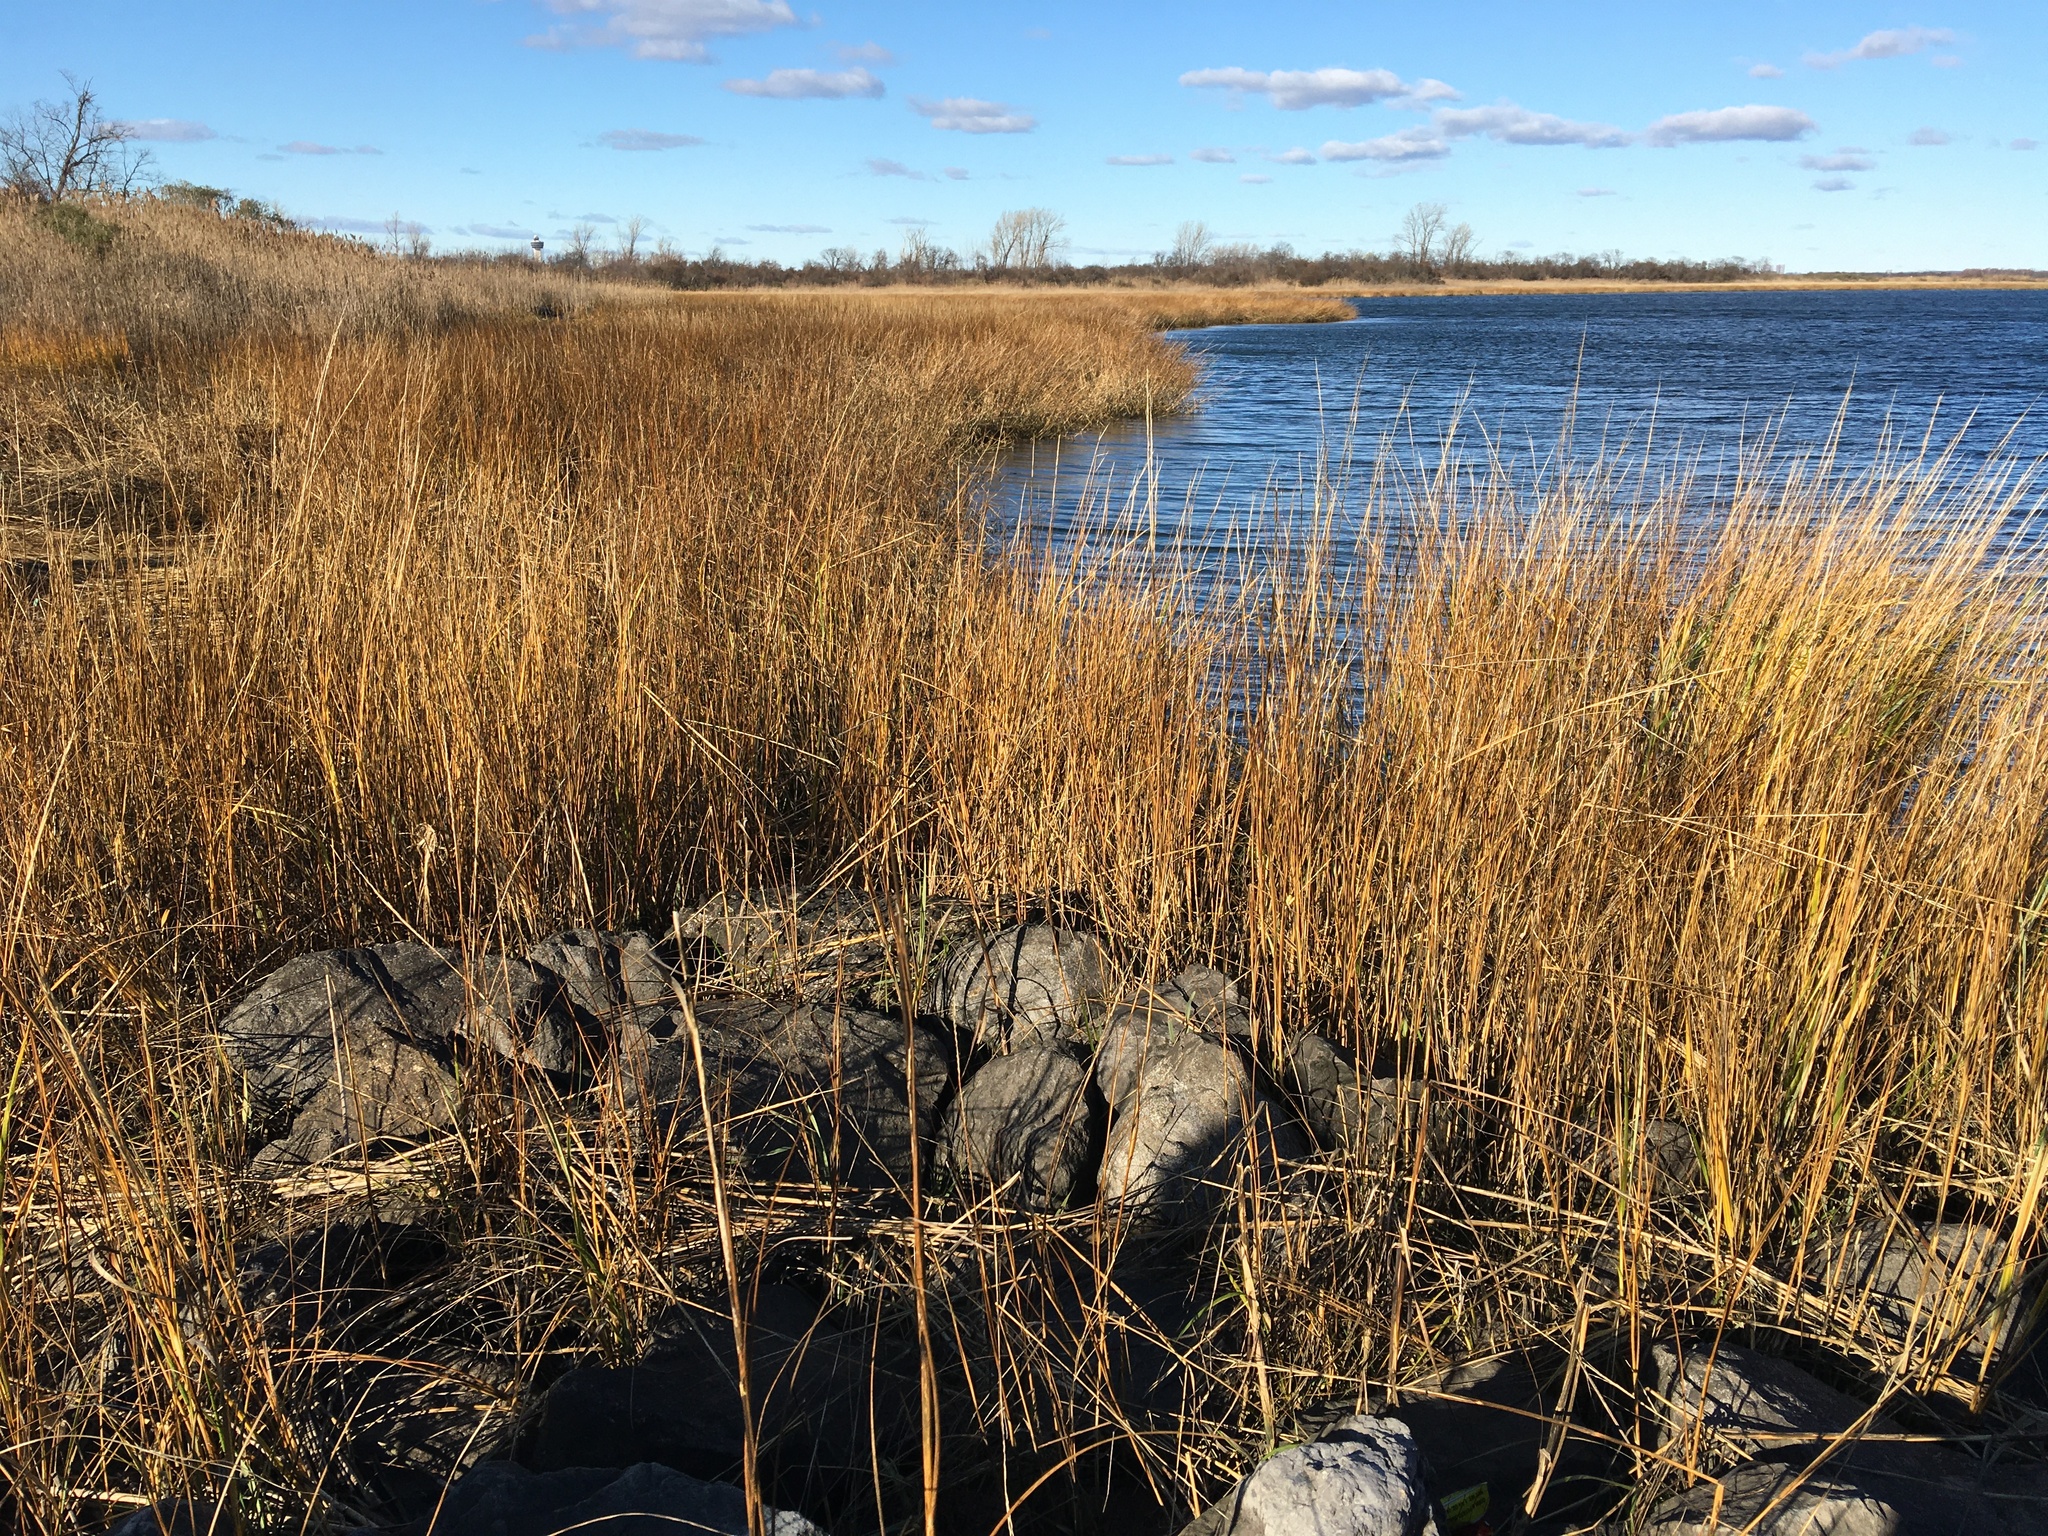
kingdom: Plantae
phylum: Tracheophyta
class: Liliopsida
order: Poales
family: Poaceae
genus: Sporobolus
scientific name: Sporobolus alterniflorus
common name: Atlantic cordgrass
